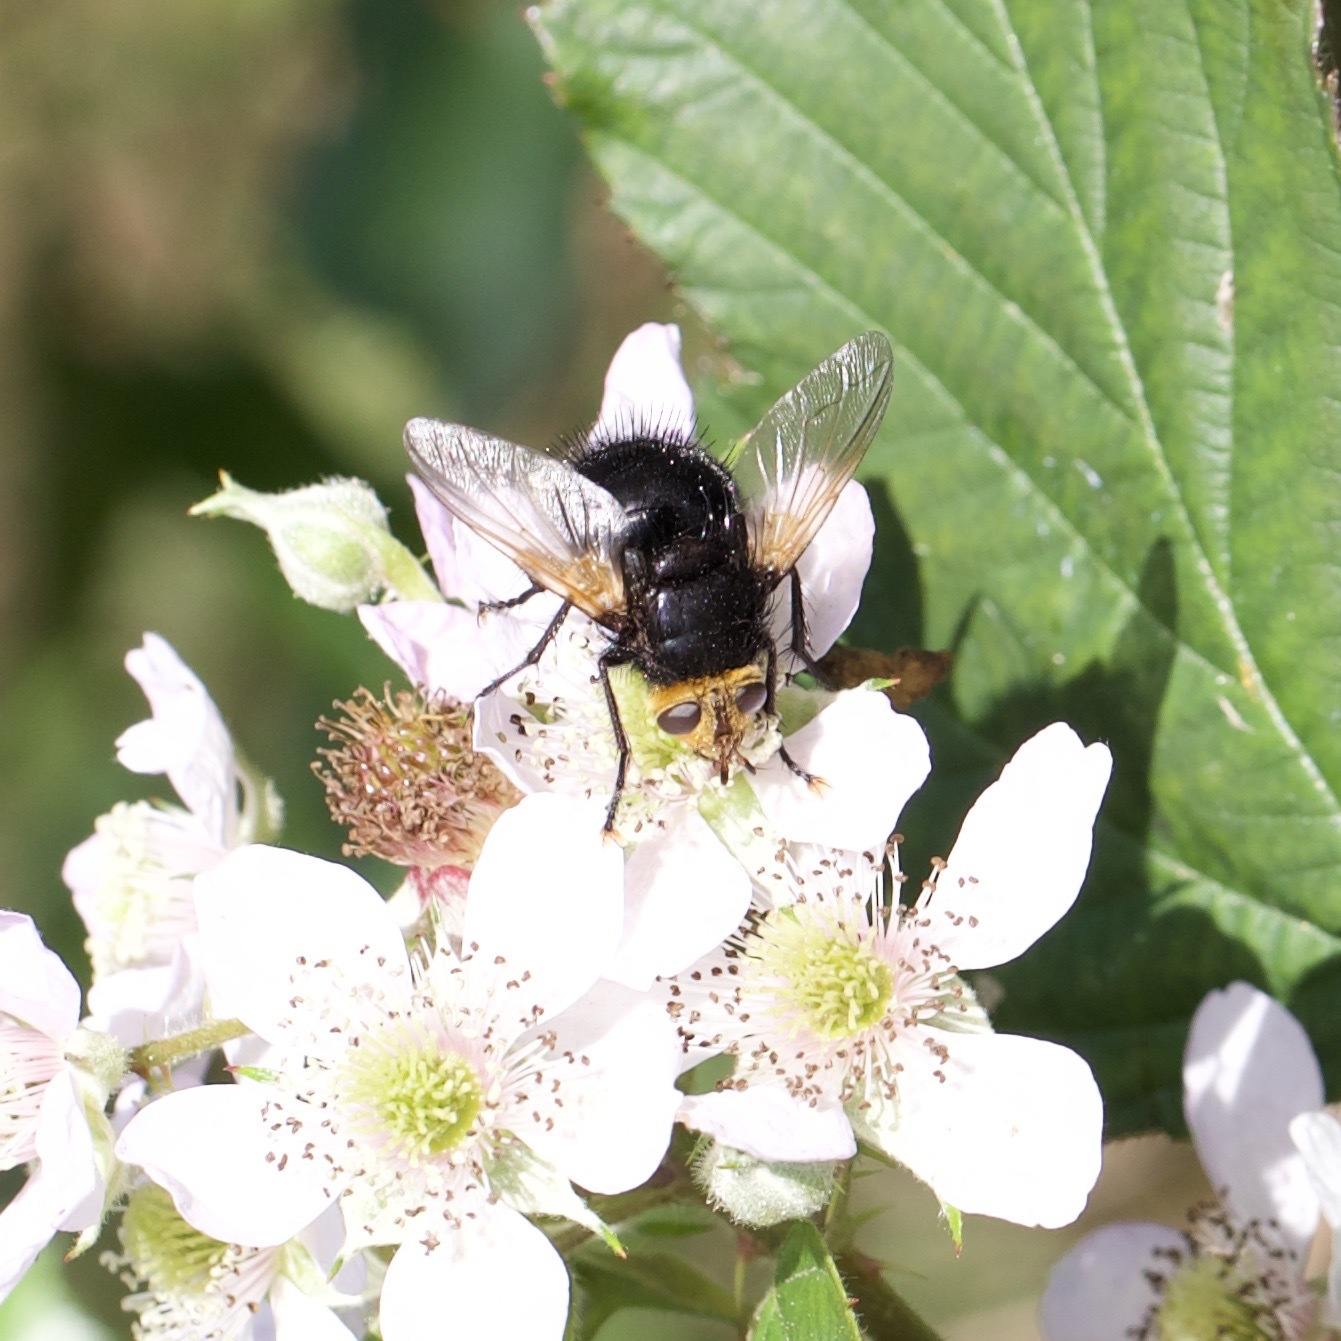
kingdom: Animalia
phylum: Arthropoda
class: Insecta
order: Diptera
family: Tachinidae
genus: Tachina
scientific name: Tachina grossa
